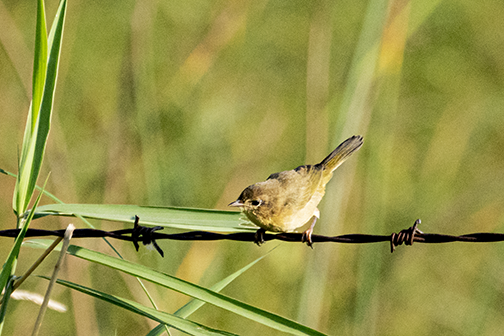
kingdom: Animalia
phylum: Chordata
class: Aves
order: Passeriformes
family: Parulidae
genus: Geothlypis
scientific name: Geothlypis trichas
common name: Common yellowthroat
